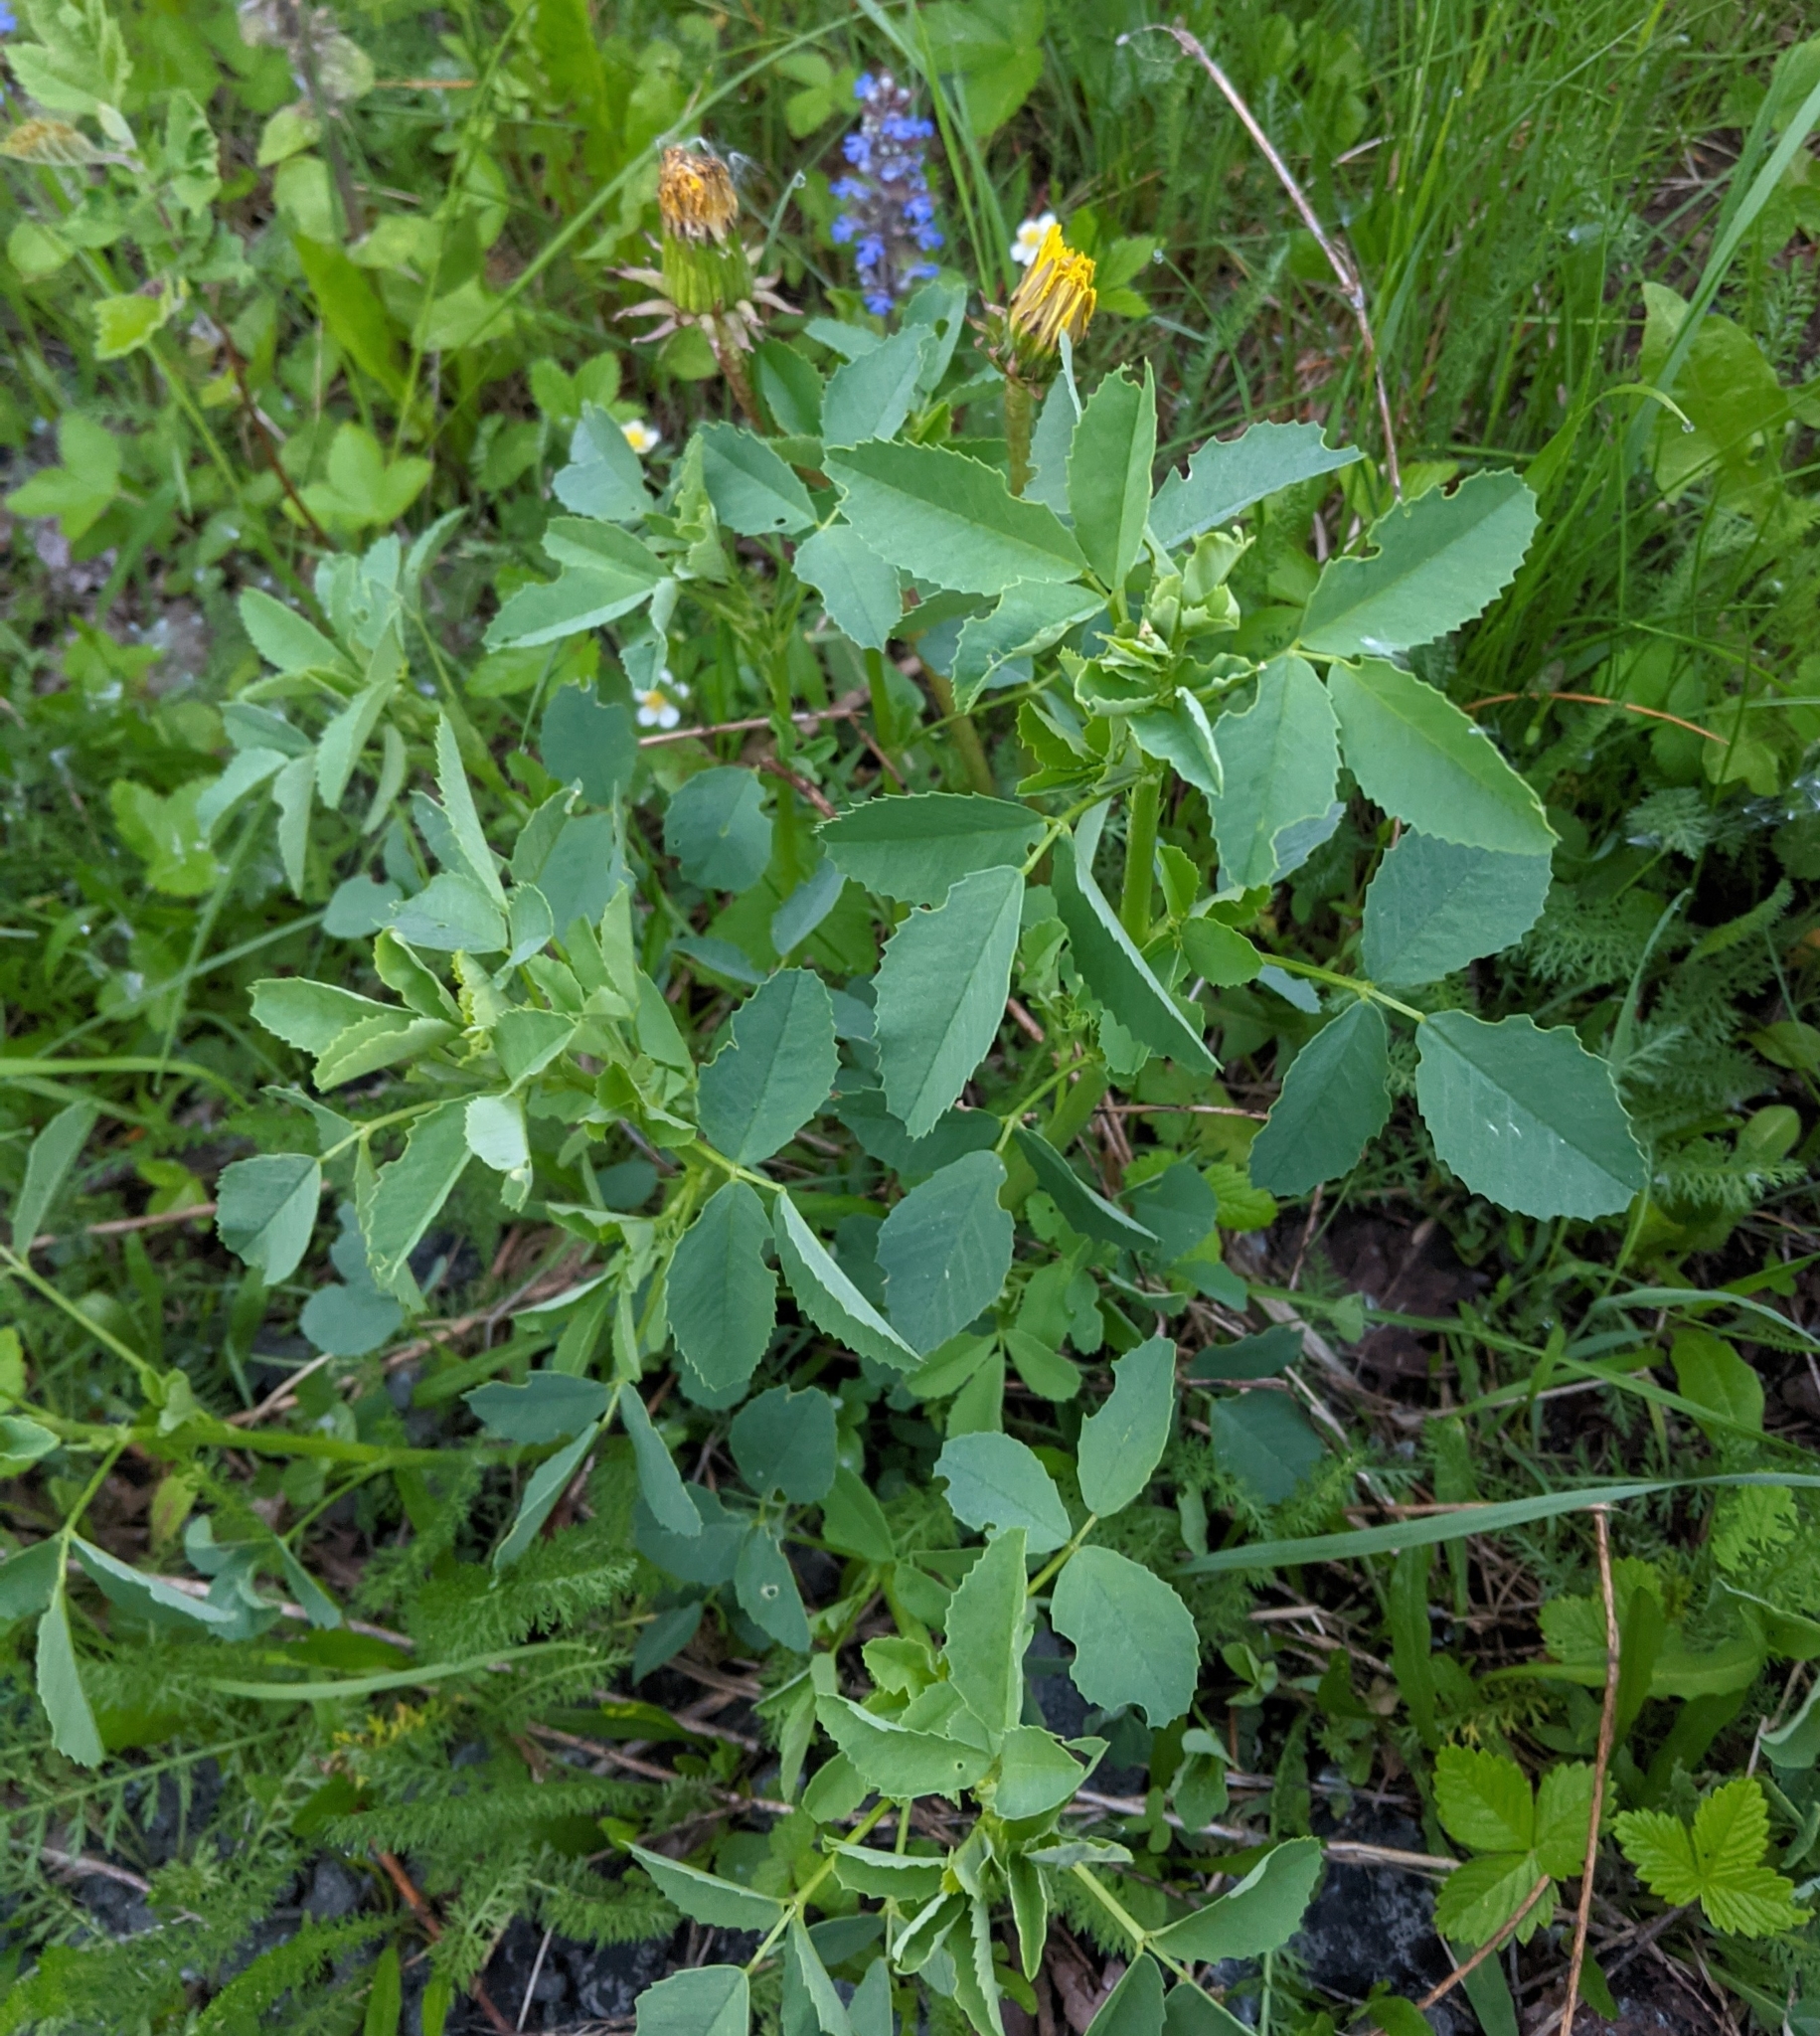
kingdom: Plantae
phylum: Tracheophyta
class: Magnoliopsida
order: Fabales
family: Fabaceae
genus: Melilotus
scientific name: Melilotus
